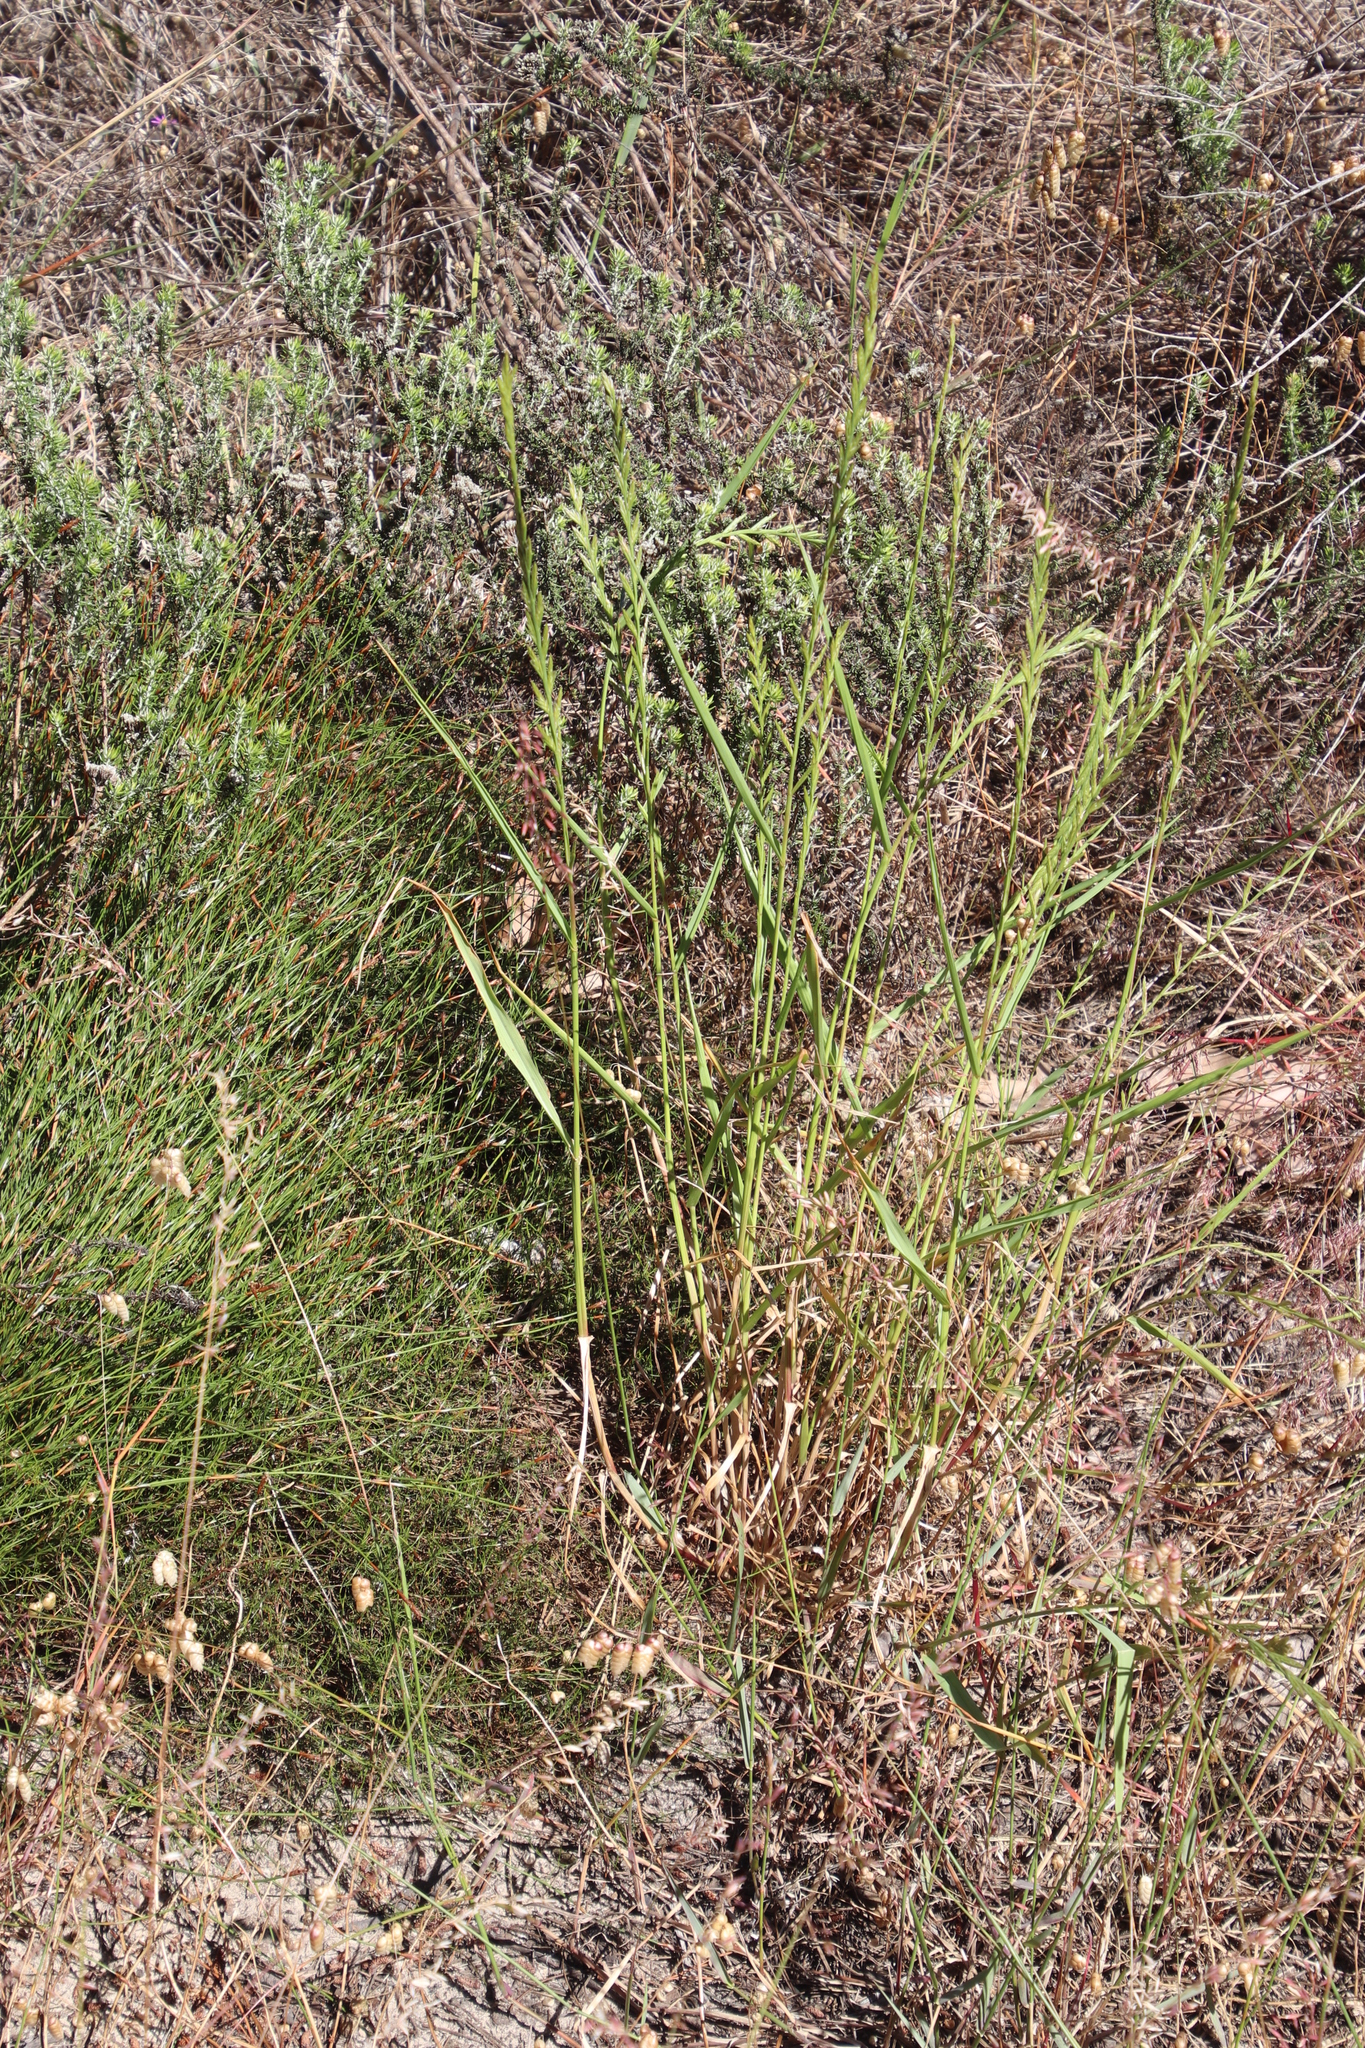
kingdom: Plantae
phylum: Tracheophyta
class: Liliopsida
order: Poales
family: Poaceae
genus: Lolium
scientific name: Lolium perenne
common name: Perennial ryegrass
